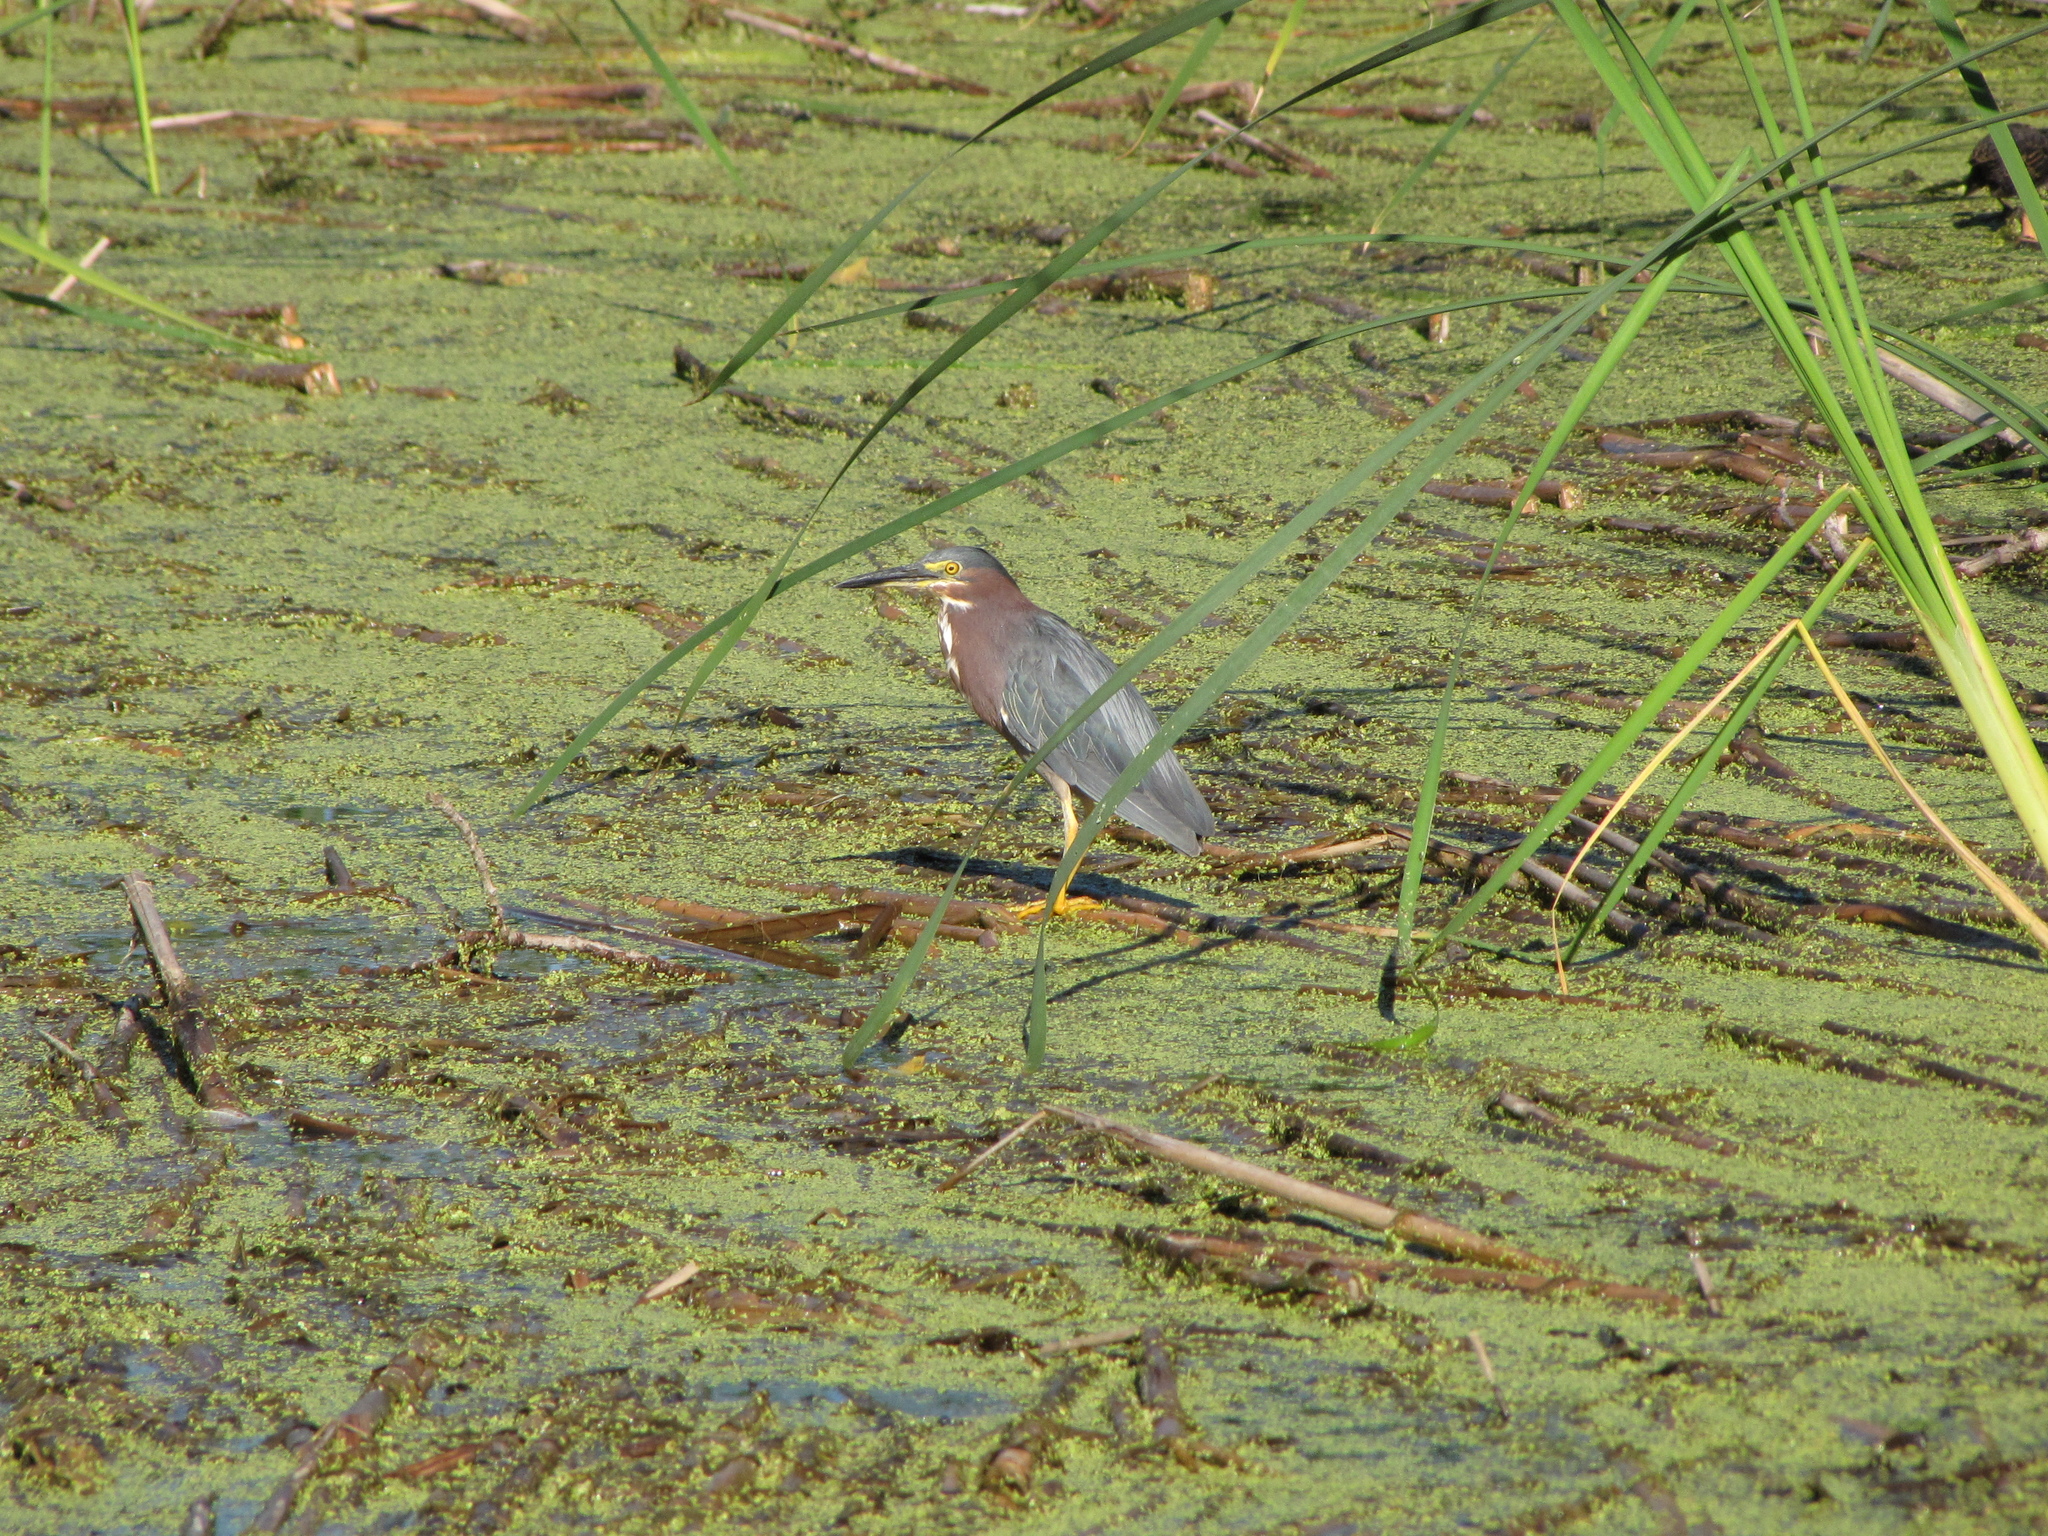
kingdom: Animalia
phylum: Chordata
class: Aves
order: Pelecaniformes
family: Ardeidae
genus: Butorides
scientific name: Butorides virescens
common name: Green heron
